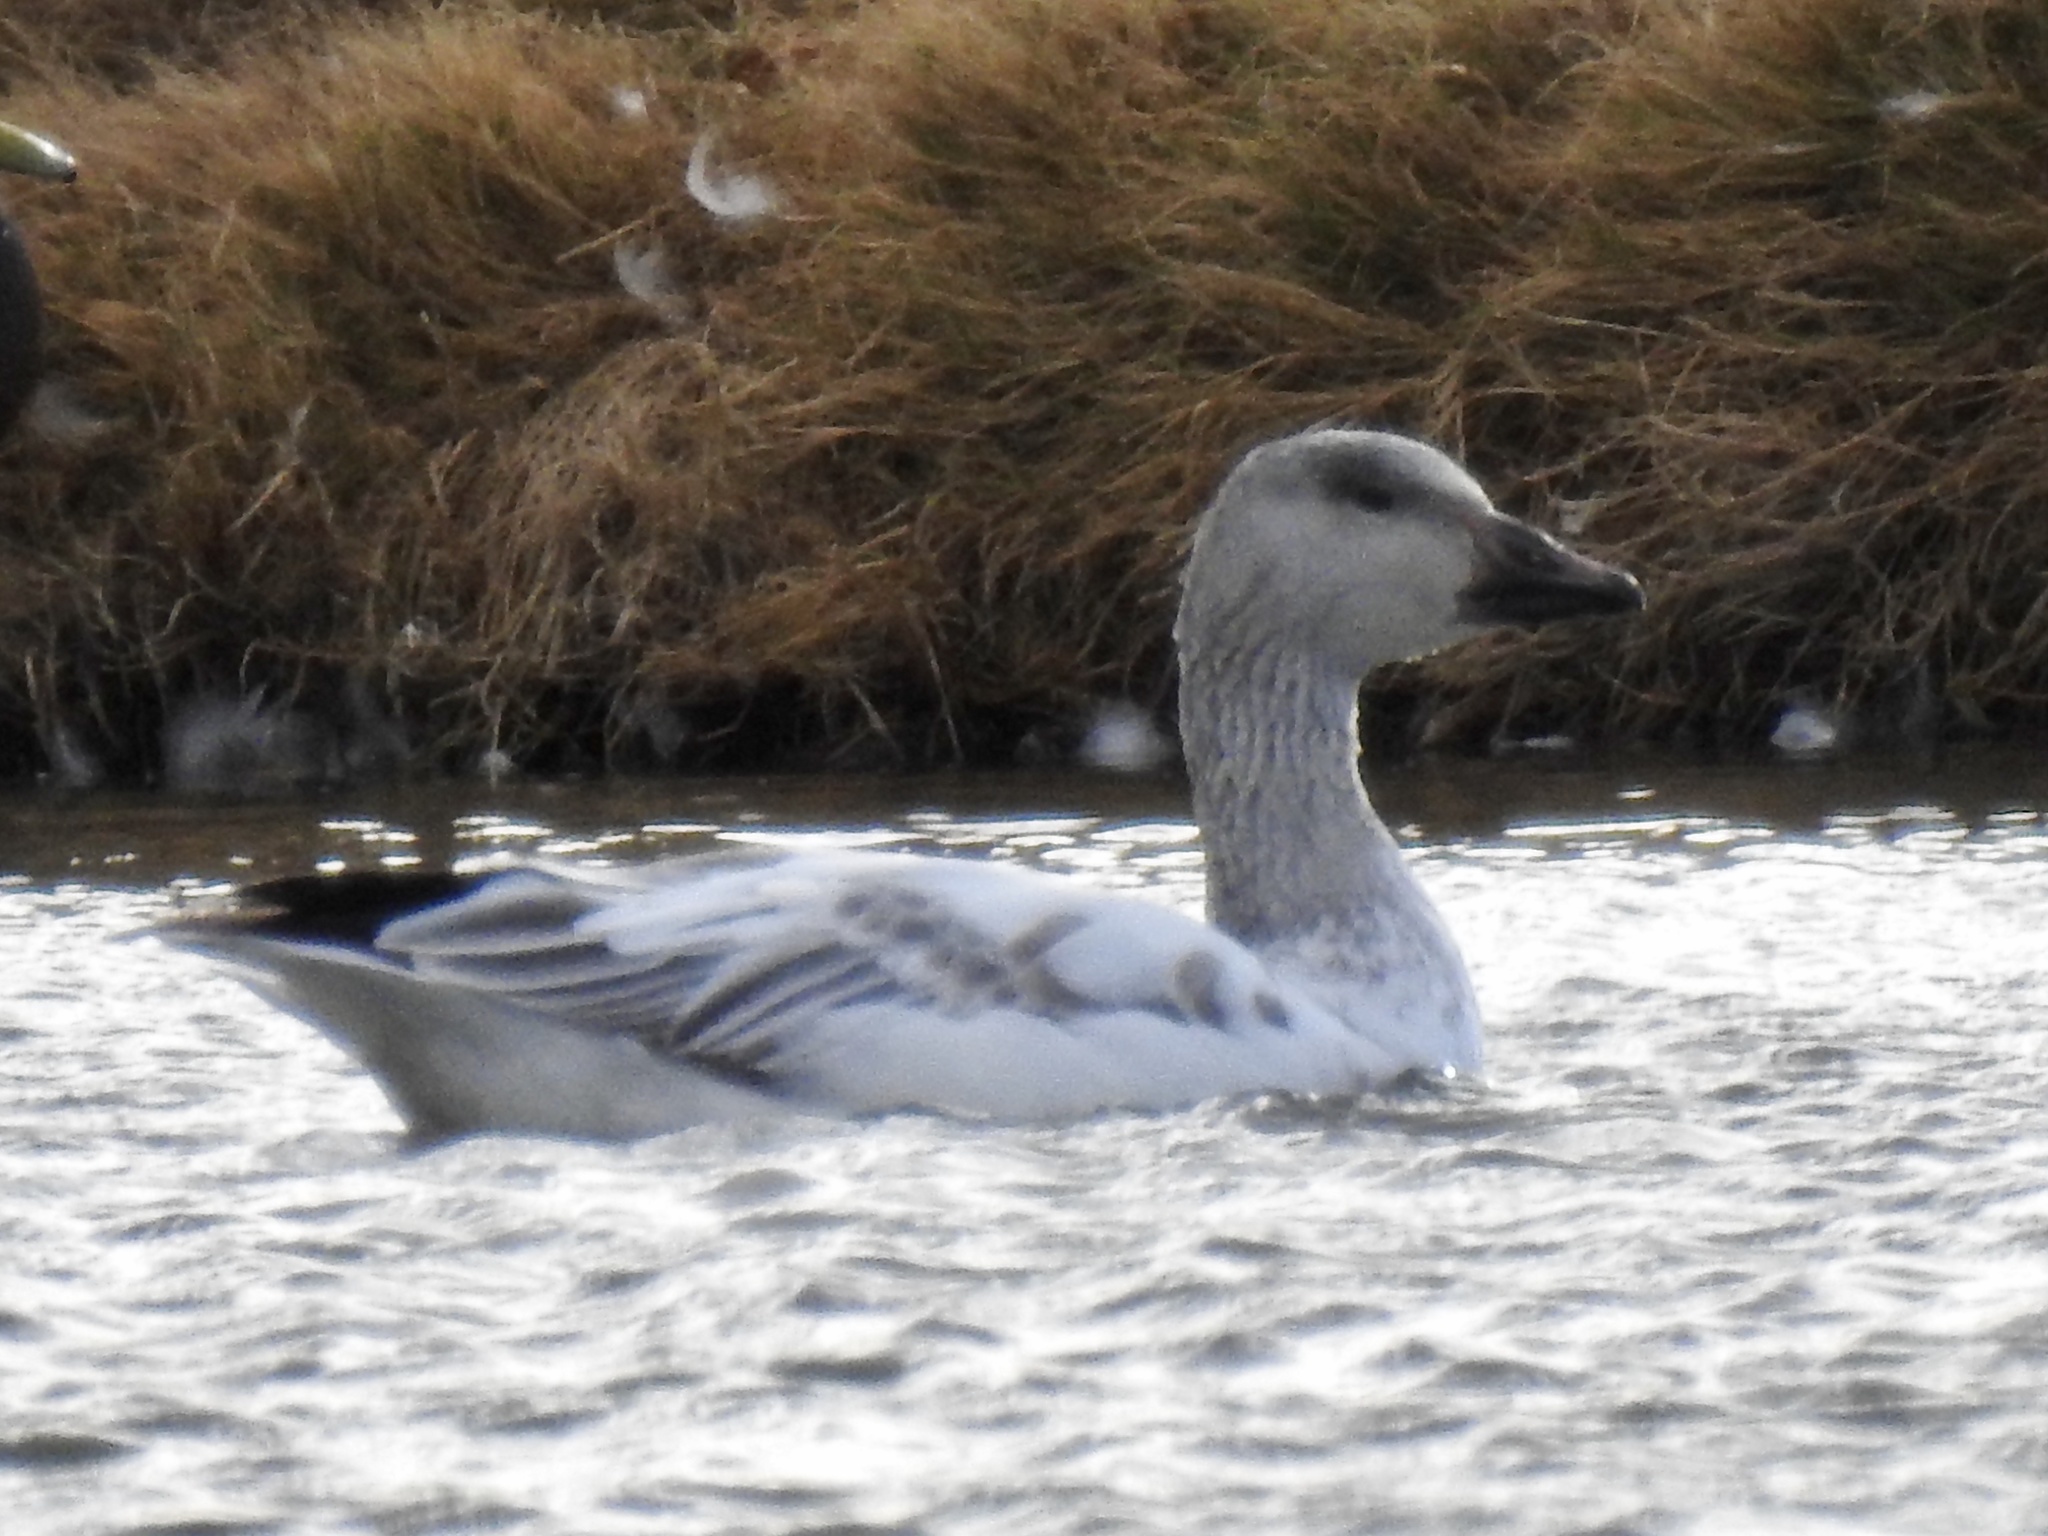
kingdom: Animalia
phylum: Chordata
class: Aves
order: Anseriformes
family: Anatidae
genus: Anser
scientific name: Anser caerulescens
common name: Snow goose
